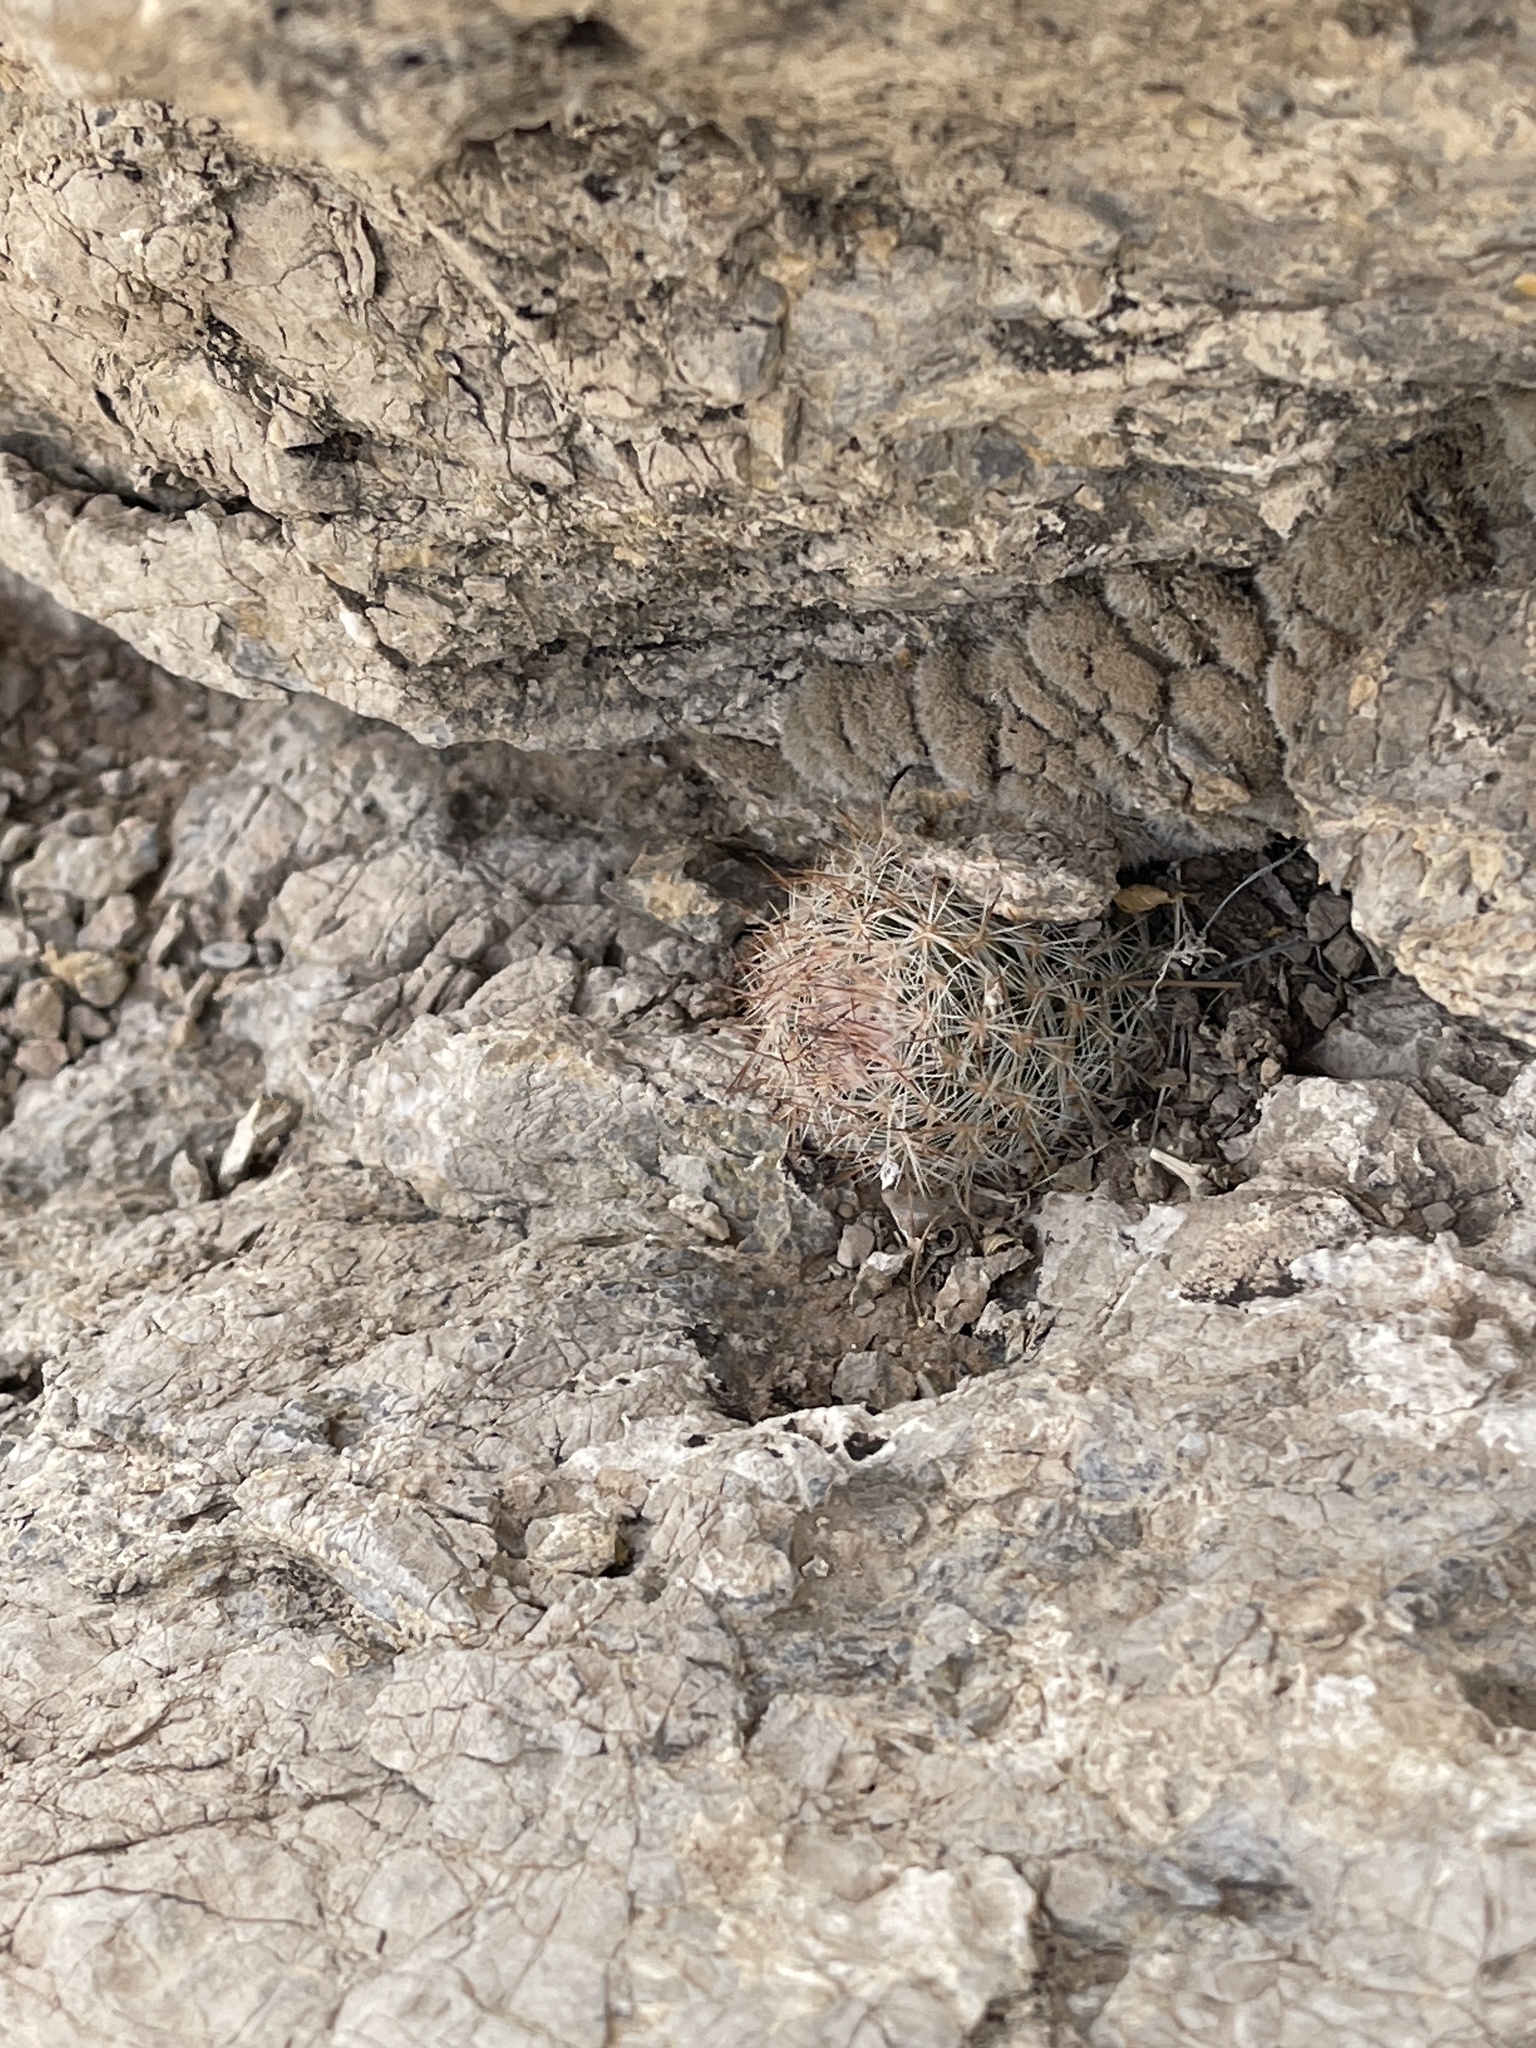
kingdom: Plantae
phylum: Tracheophyta
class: Magnoliopsida
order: Caryophyllales
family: Cactaceae
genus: Pelecyphora
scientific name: Pelecyphora tuberculosa
